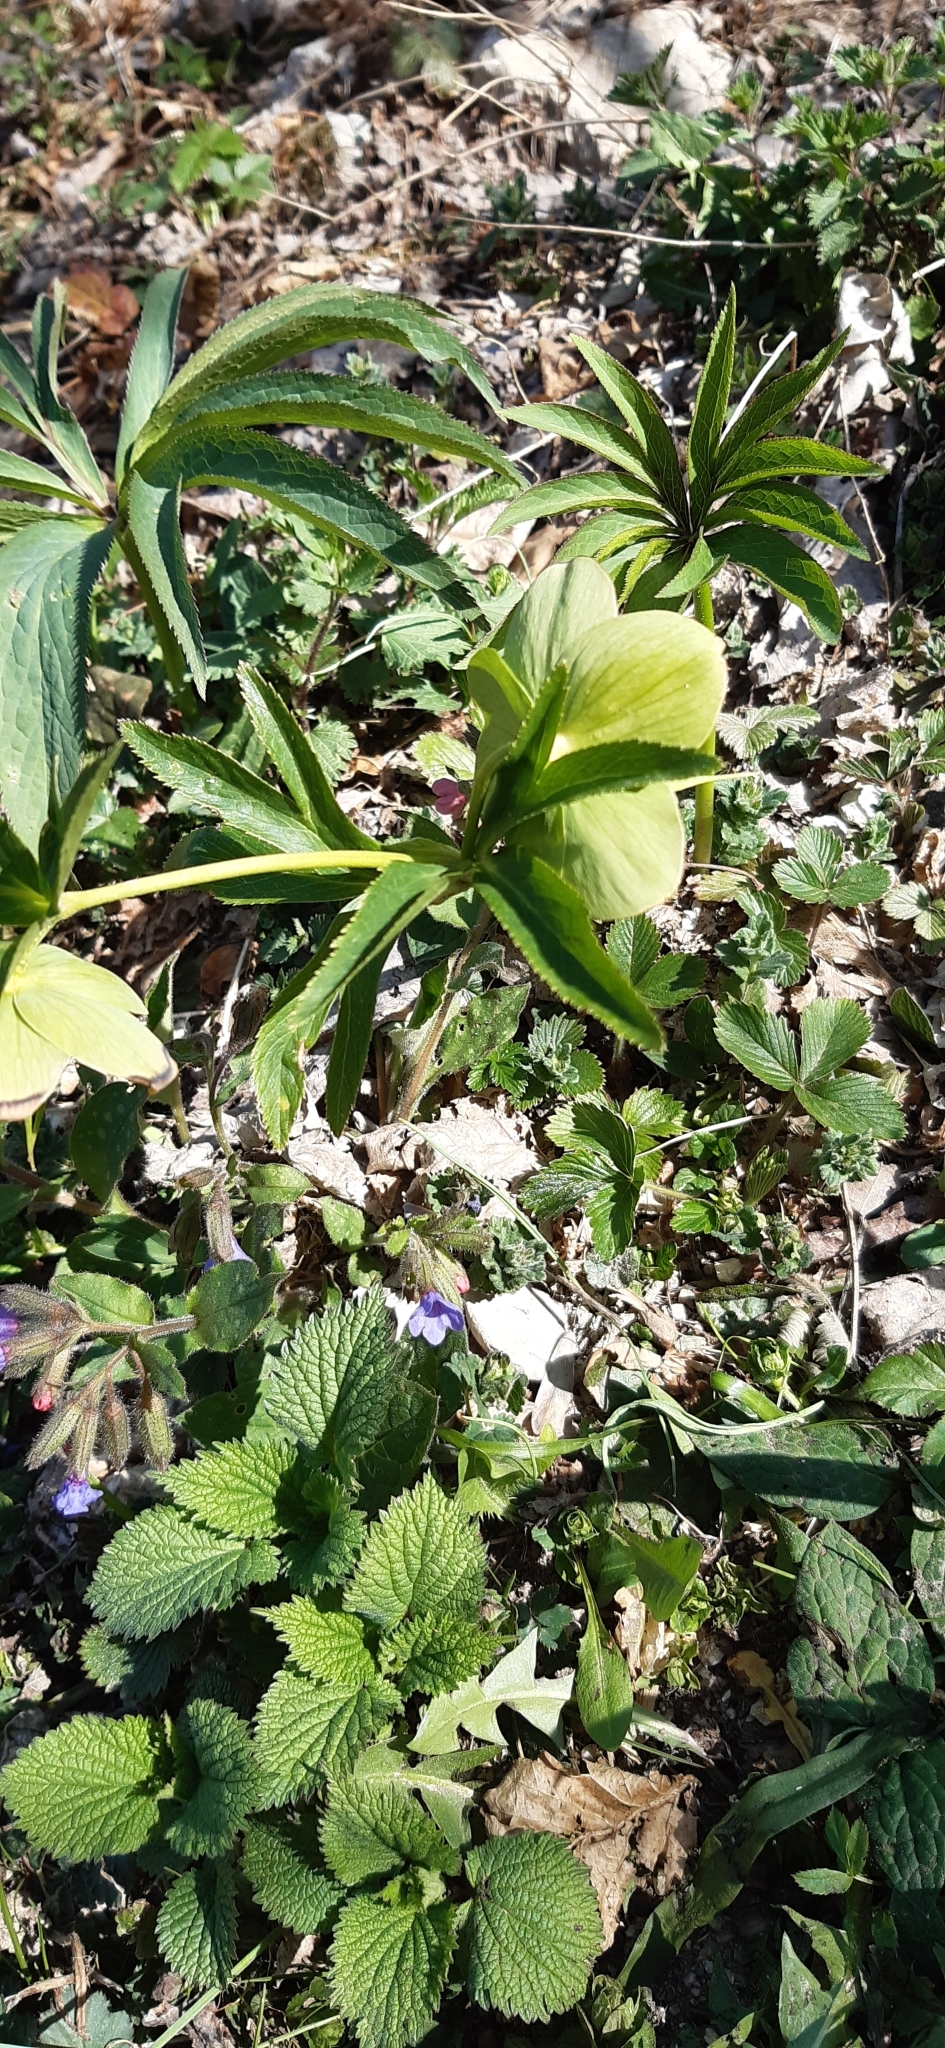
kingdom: Plantae
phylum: Tracheophyta
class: Magnoliopsida
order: Ranunculales
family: Ranunculaceae
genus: Helleborus
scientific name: Helleborus viridis
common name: Green hellebore
